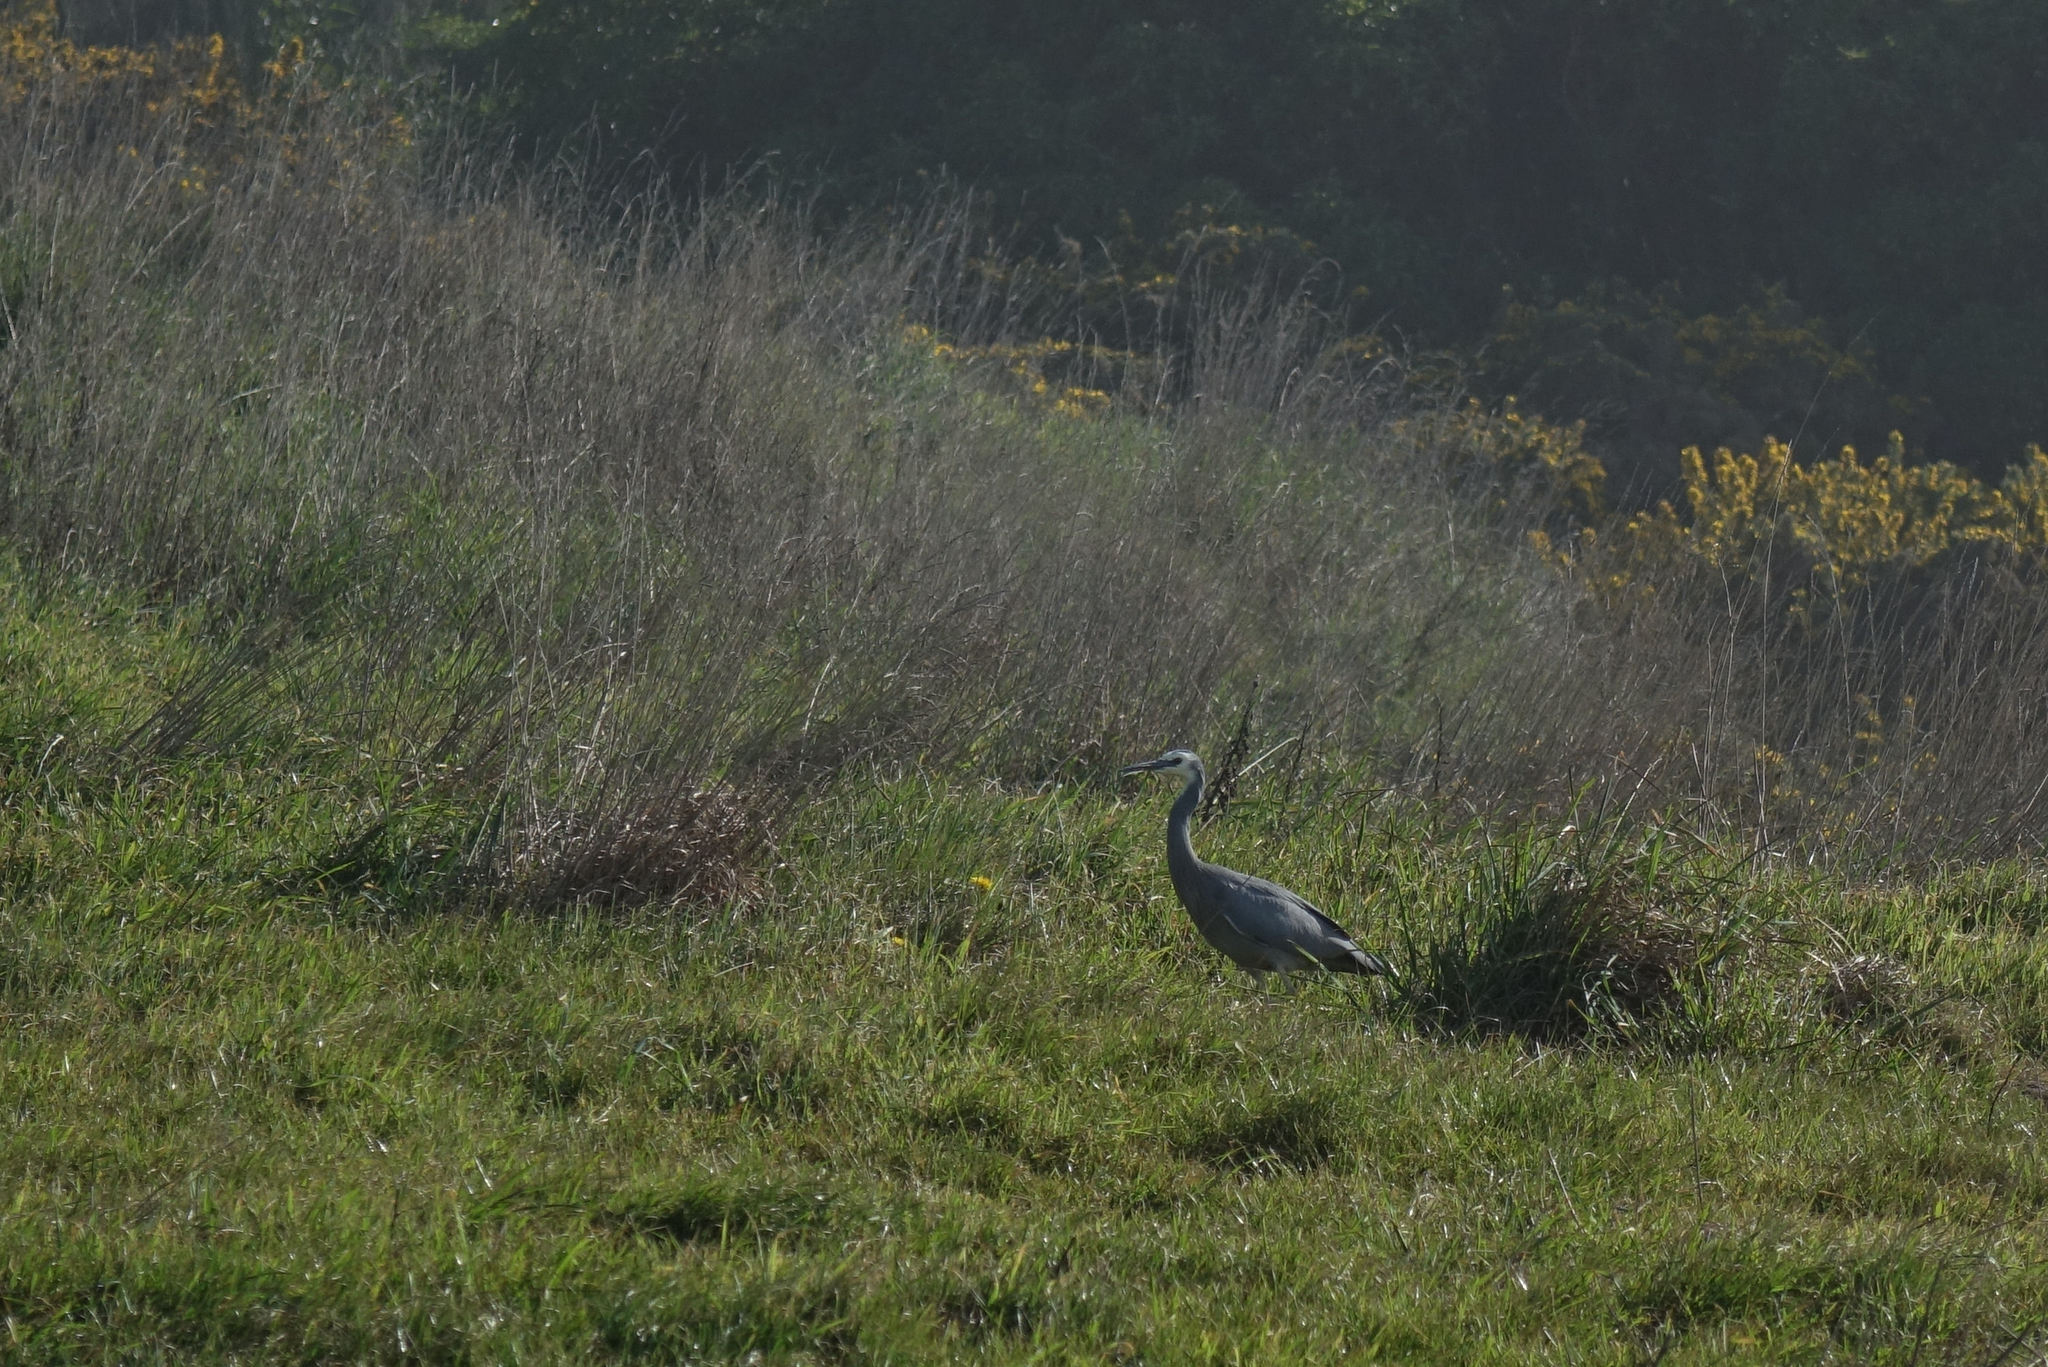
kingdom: Animalia
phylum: Chordata
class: Aves
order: Pelecaniformes
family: Ardeidae
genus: Egretta
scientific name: Egretta novaehollandiae
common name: White-faced heron
